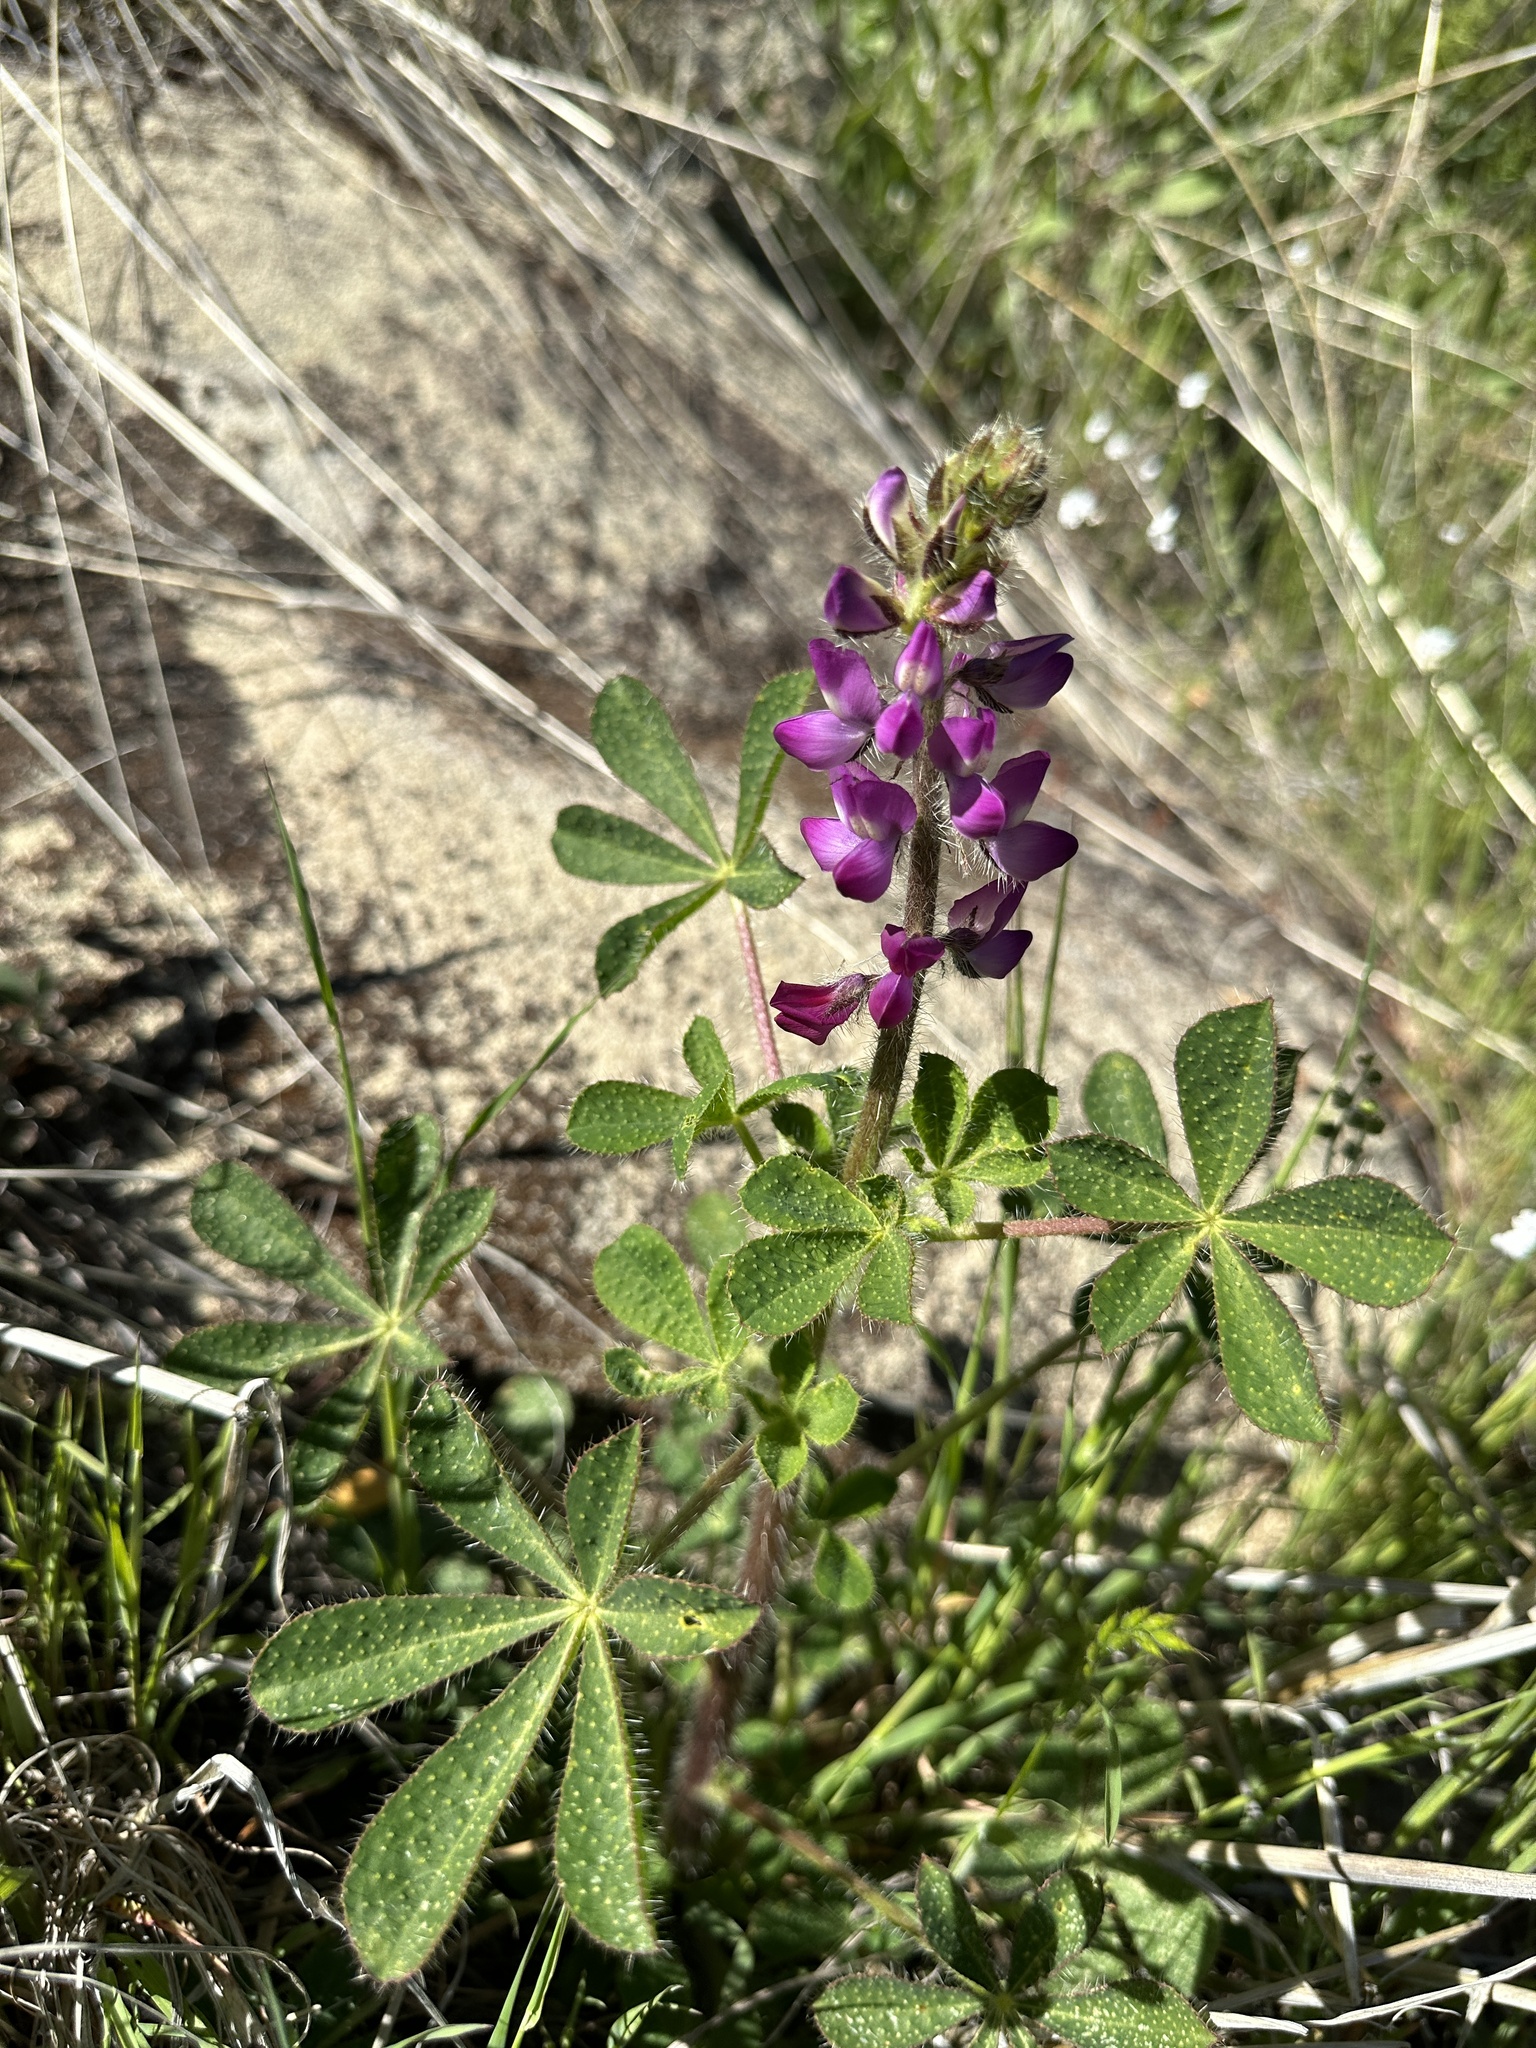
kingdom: Plantae
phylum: Tracheophyta
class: Magnoliopsida
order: Fabales
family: Fabaceae
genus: Lupinus
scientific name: Lupinus hirsutissimus
